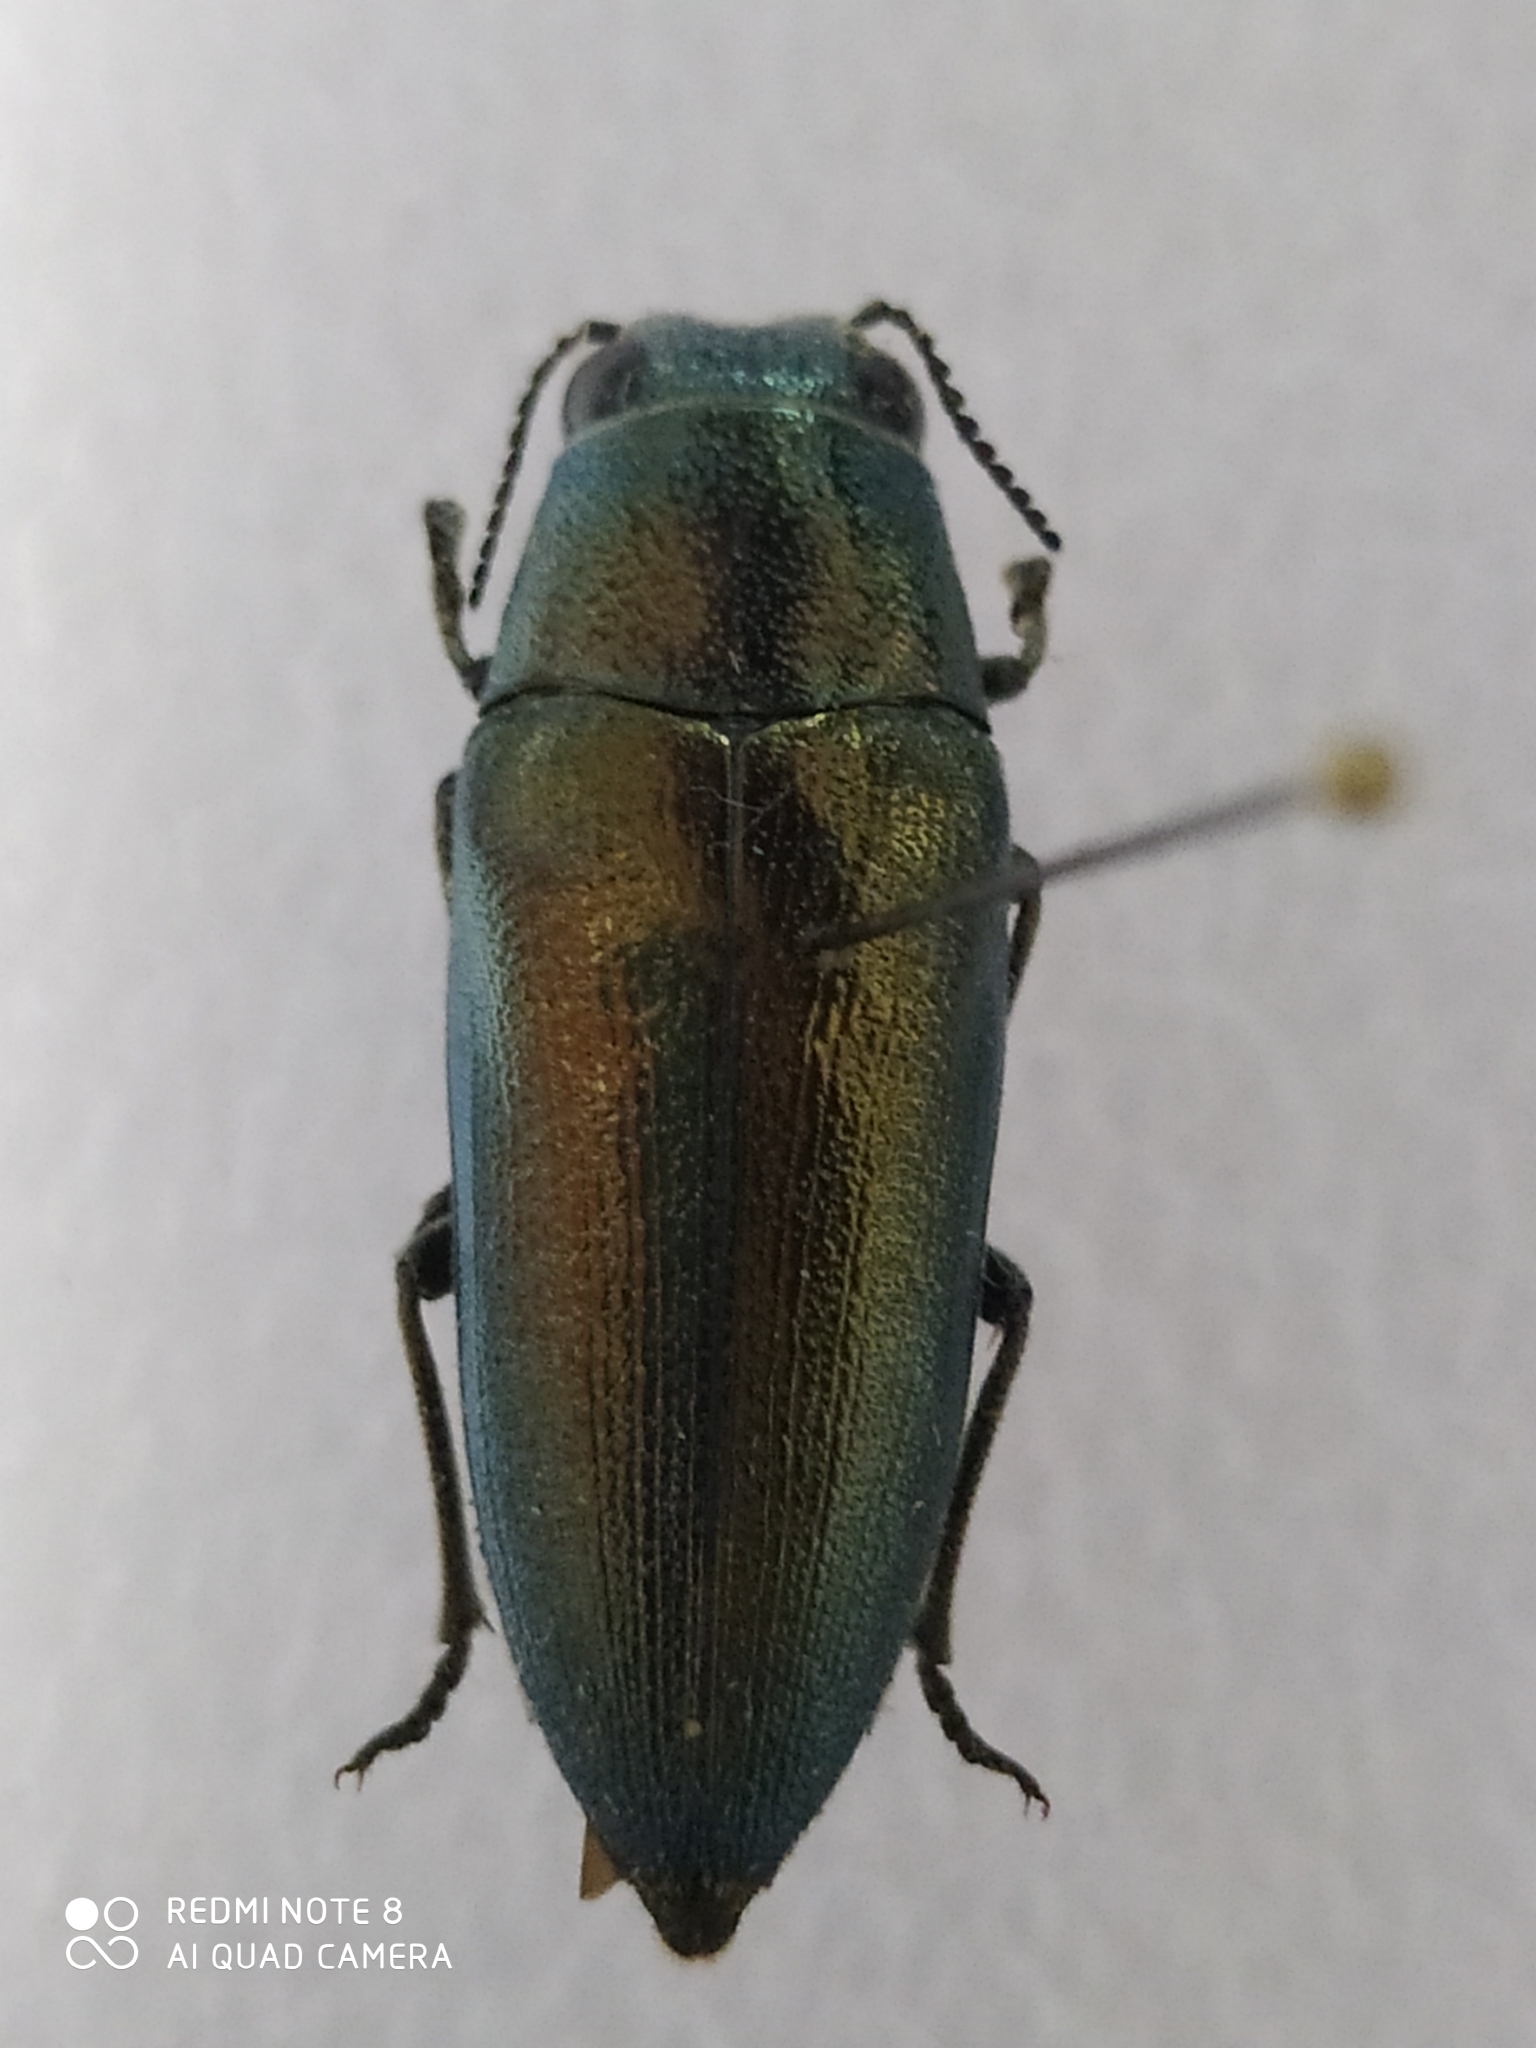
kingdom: Animalia
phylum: Arthropoda
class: Insecta
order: Coleoptera
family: Buprestidae
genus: Hippomelas
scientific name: Hippomelas mexicanus
